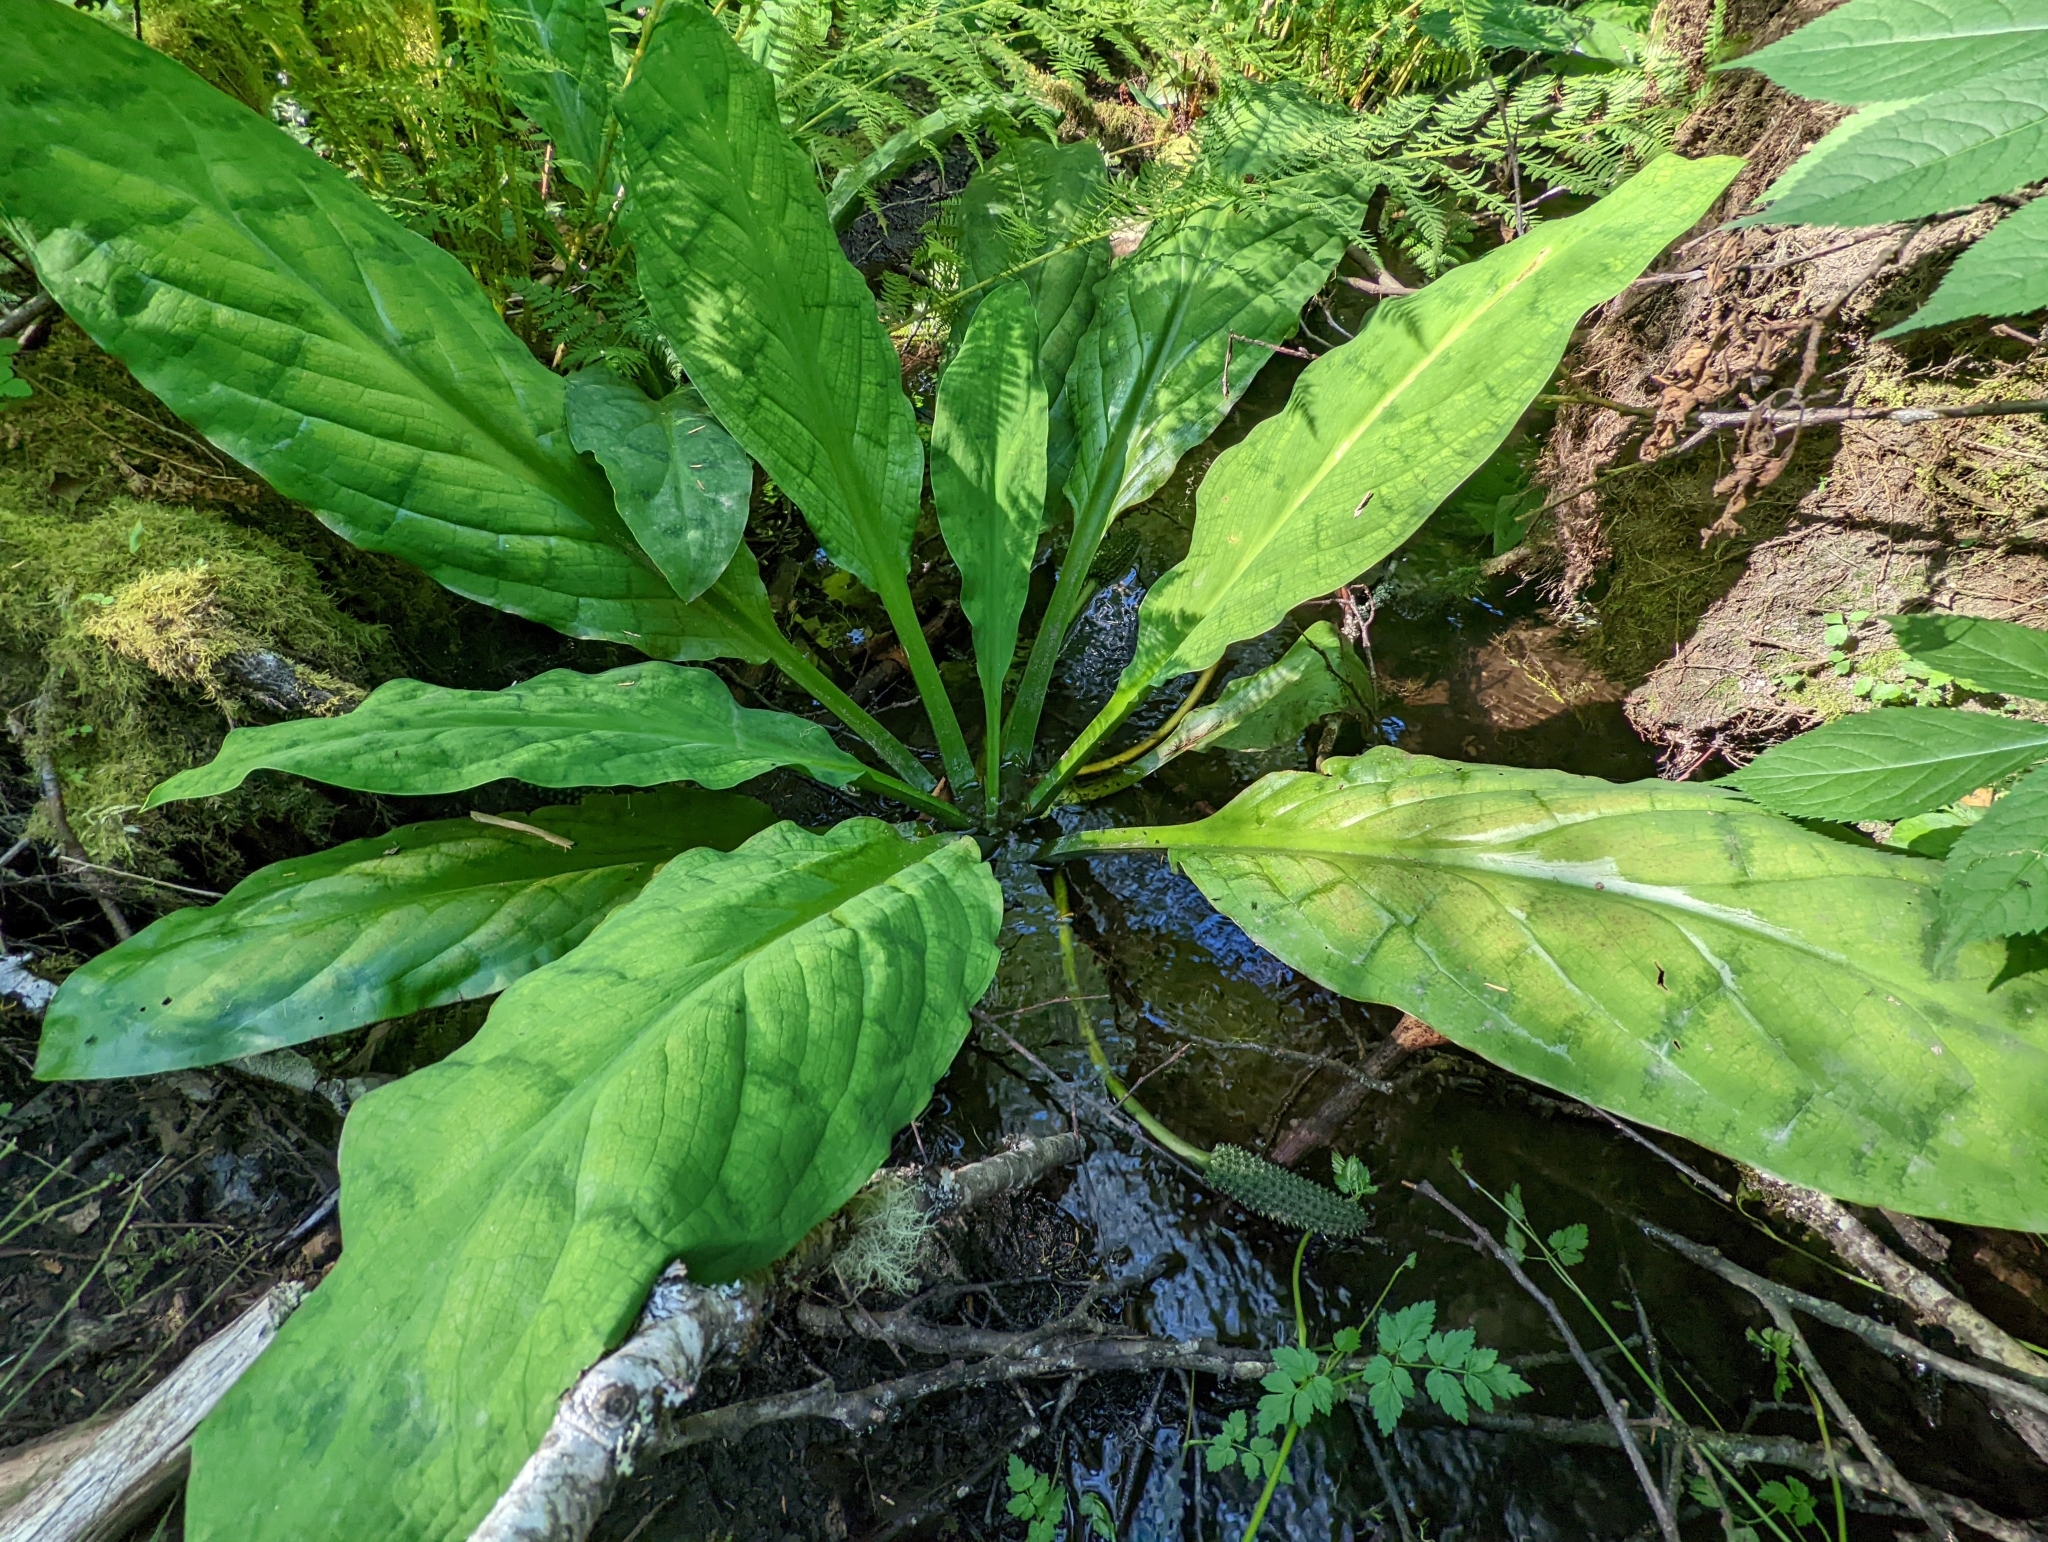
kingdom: Plantae
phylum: Tracheophyta
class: Liliopsida
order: Alismatales
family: Araceae
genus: Lysichiton
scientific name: Lysichiton americanus
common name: American skunk cabbage
